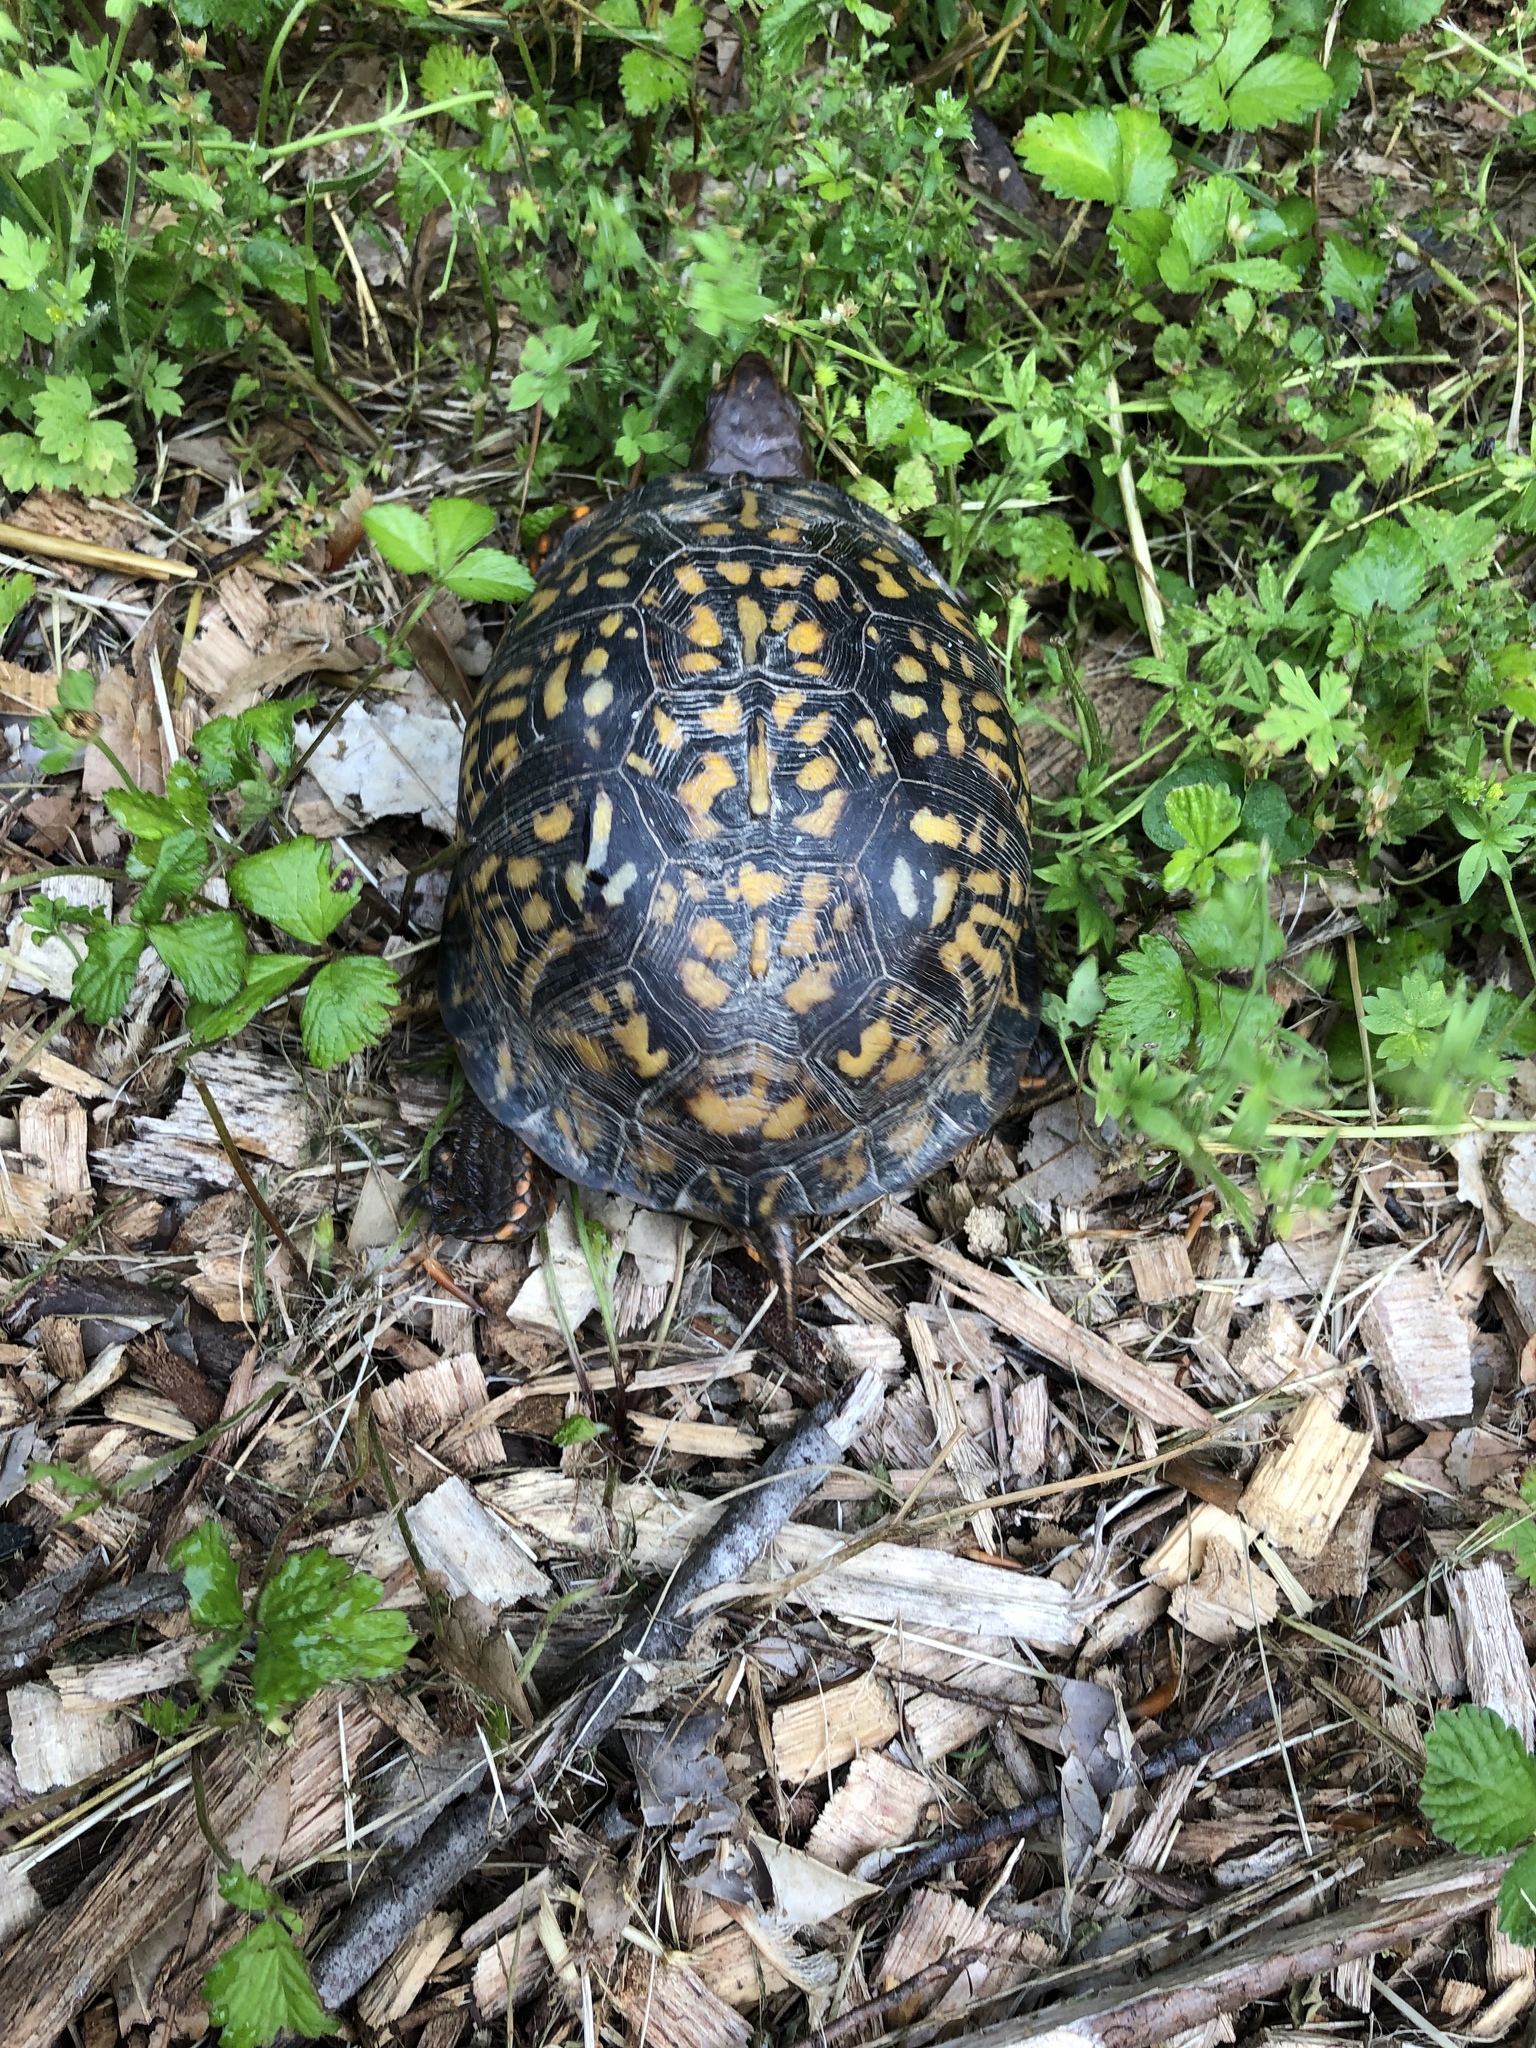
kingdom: Animalia
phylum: Chordata
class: Testudines
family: Emydidae
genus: Terrapene
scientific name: Terrapene carolina
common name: Common box turtle
